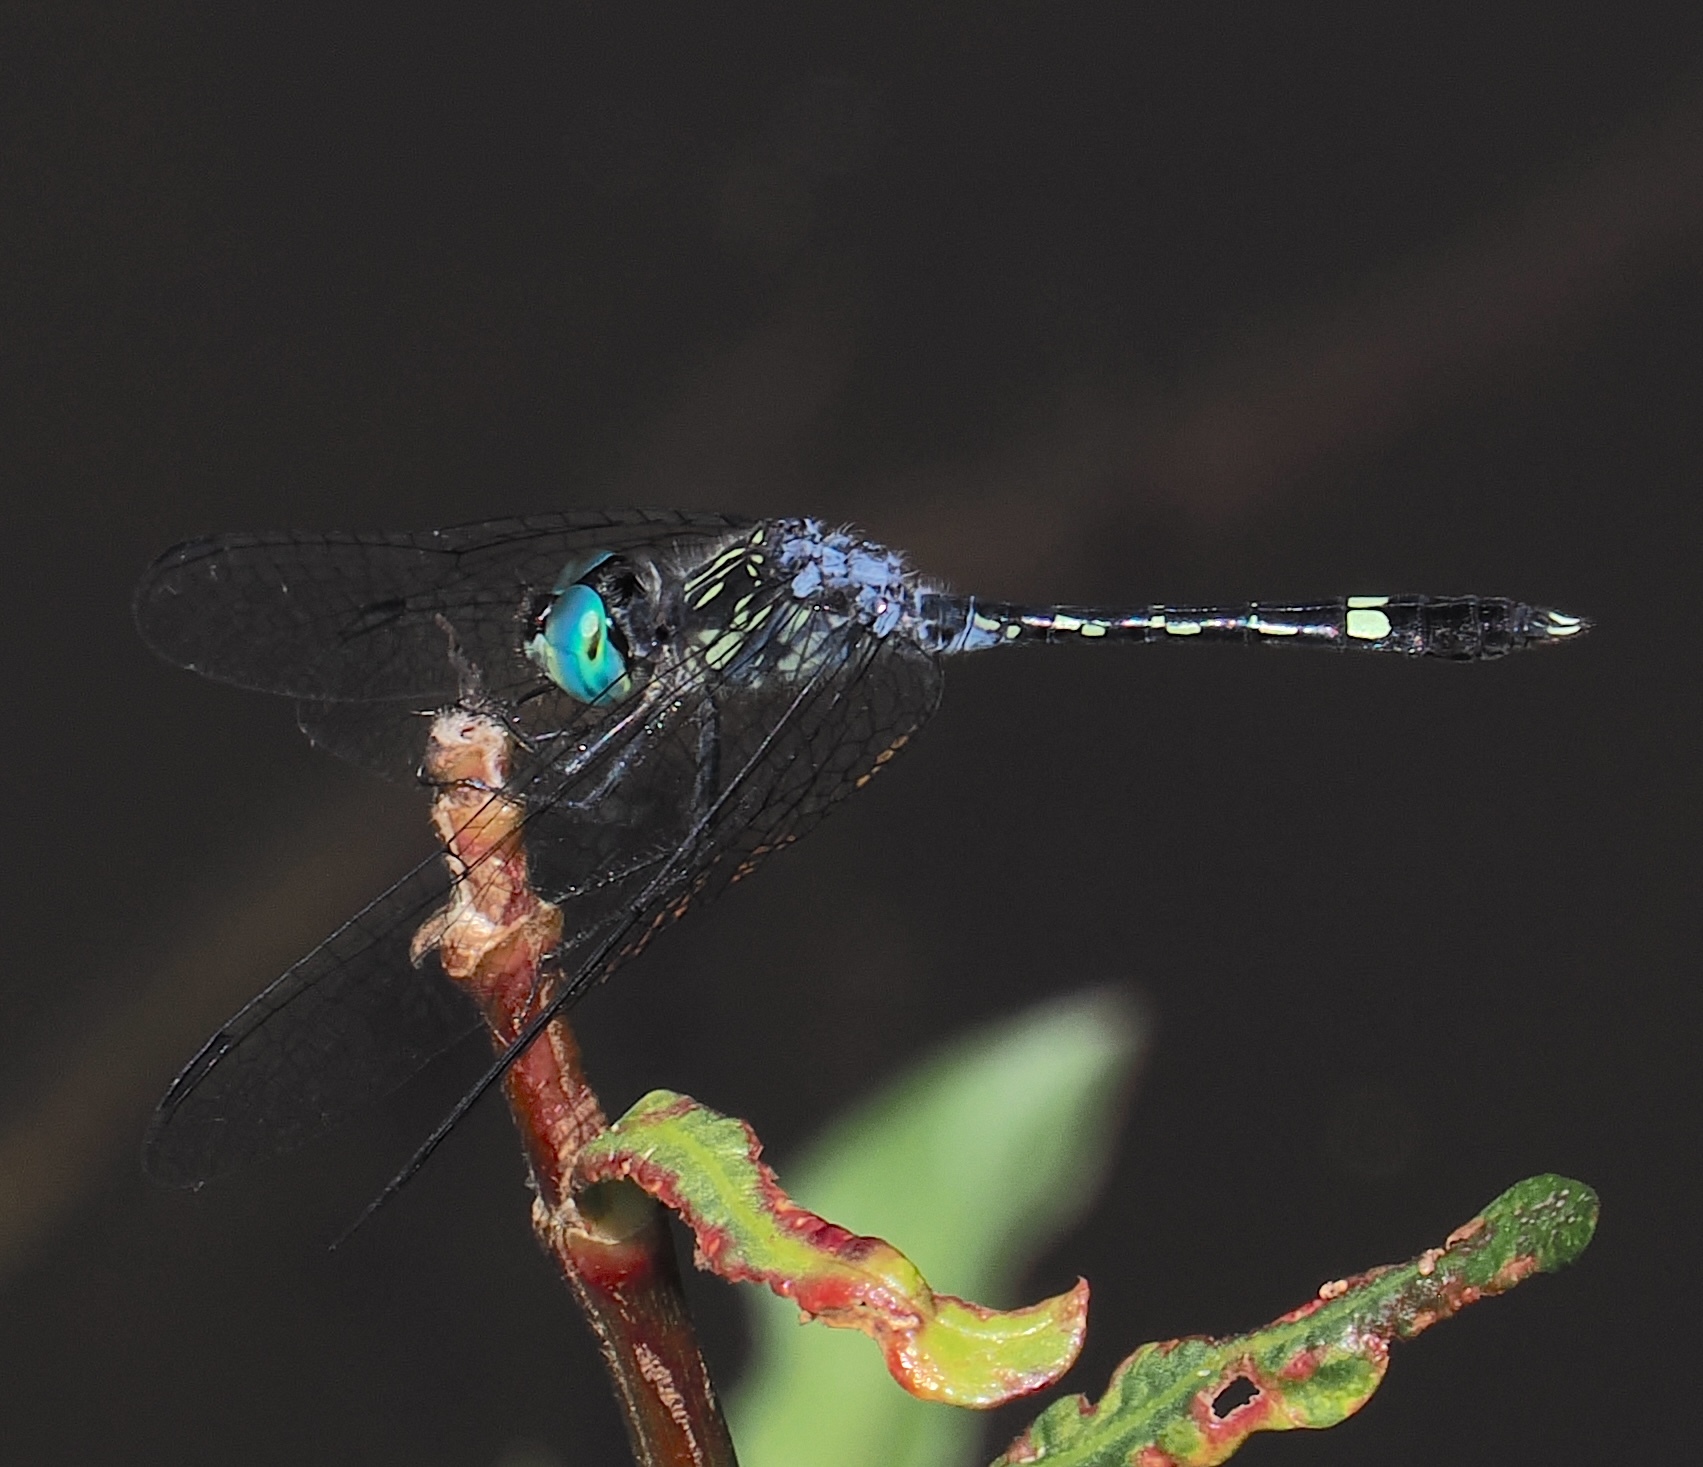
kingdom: Animalia
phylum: Arthropoda
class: Insecta
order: Odonata
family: Libellulidae
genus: Micrathyria
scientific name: Micrathyria hesperis
